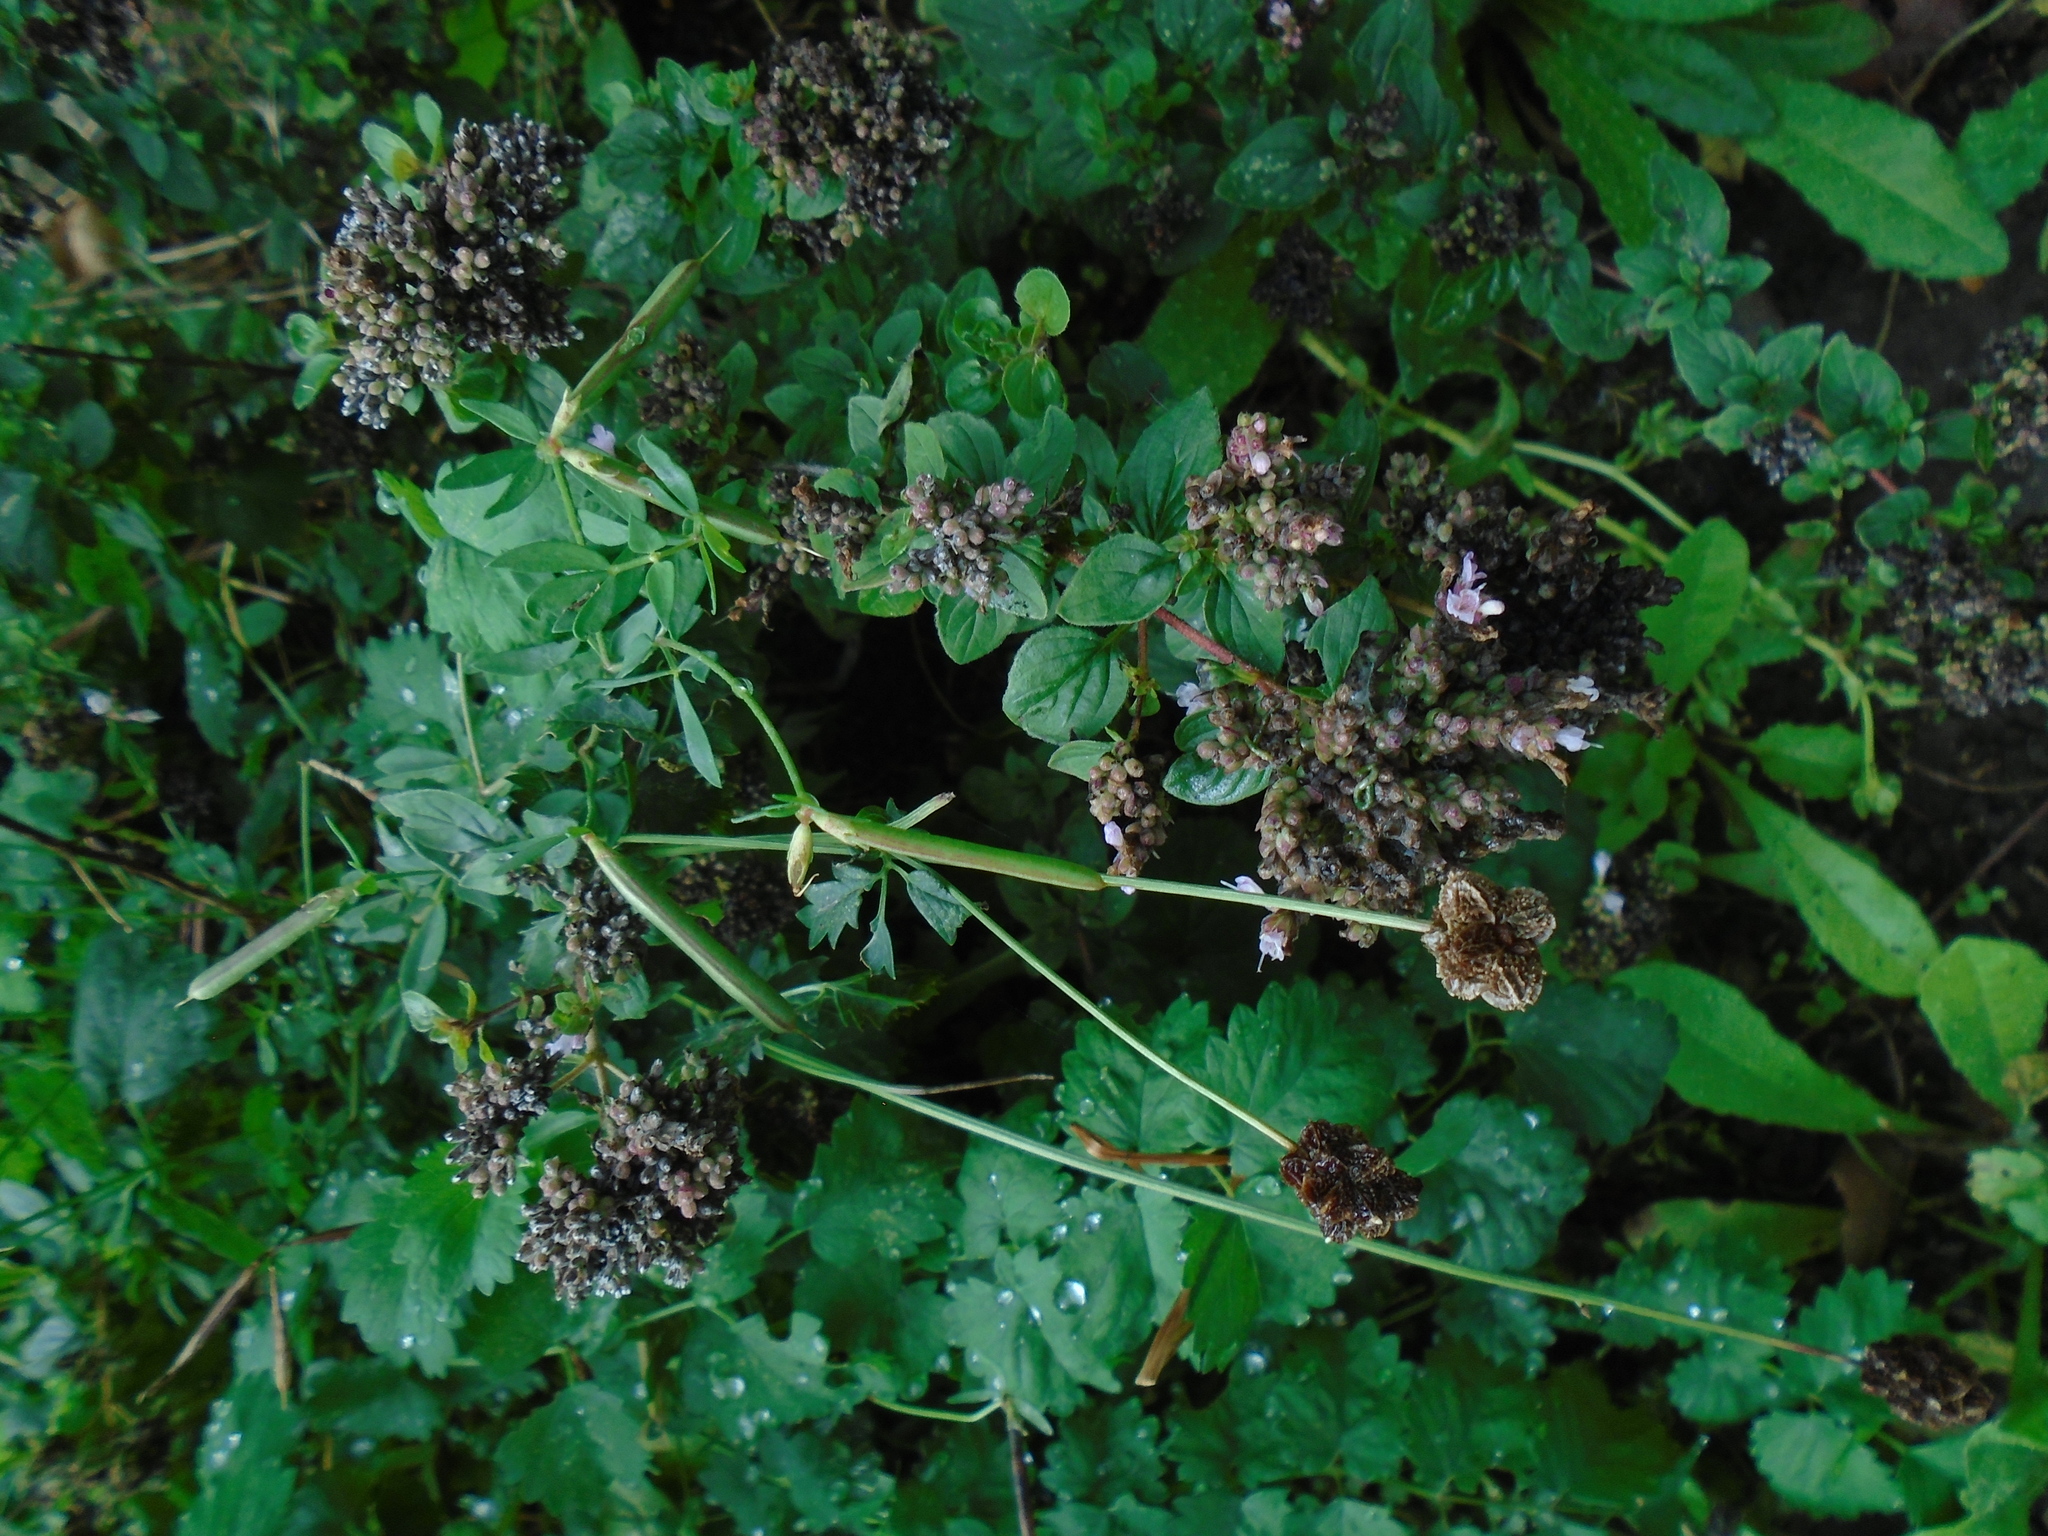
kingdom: Plantae
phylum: Tracheophyta
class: Magnoliopsida
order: Lamiales
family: Lamiaceae
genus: Origanum
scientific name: Origanum vulgare
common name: Wild marjoram
